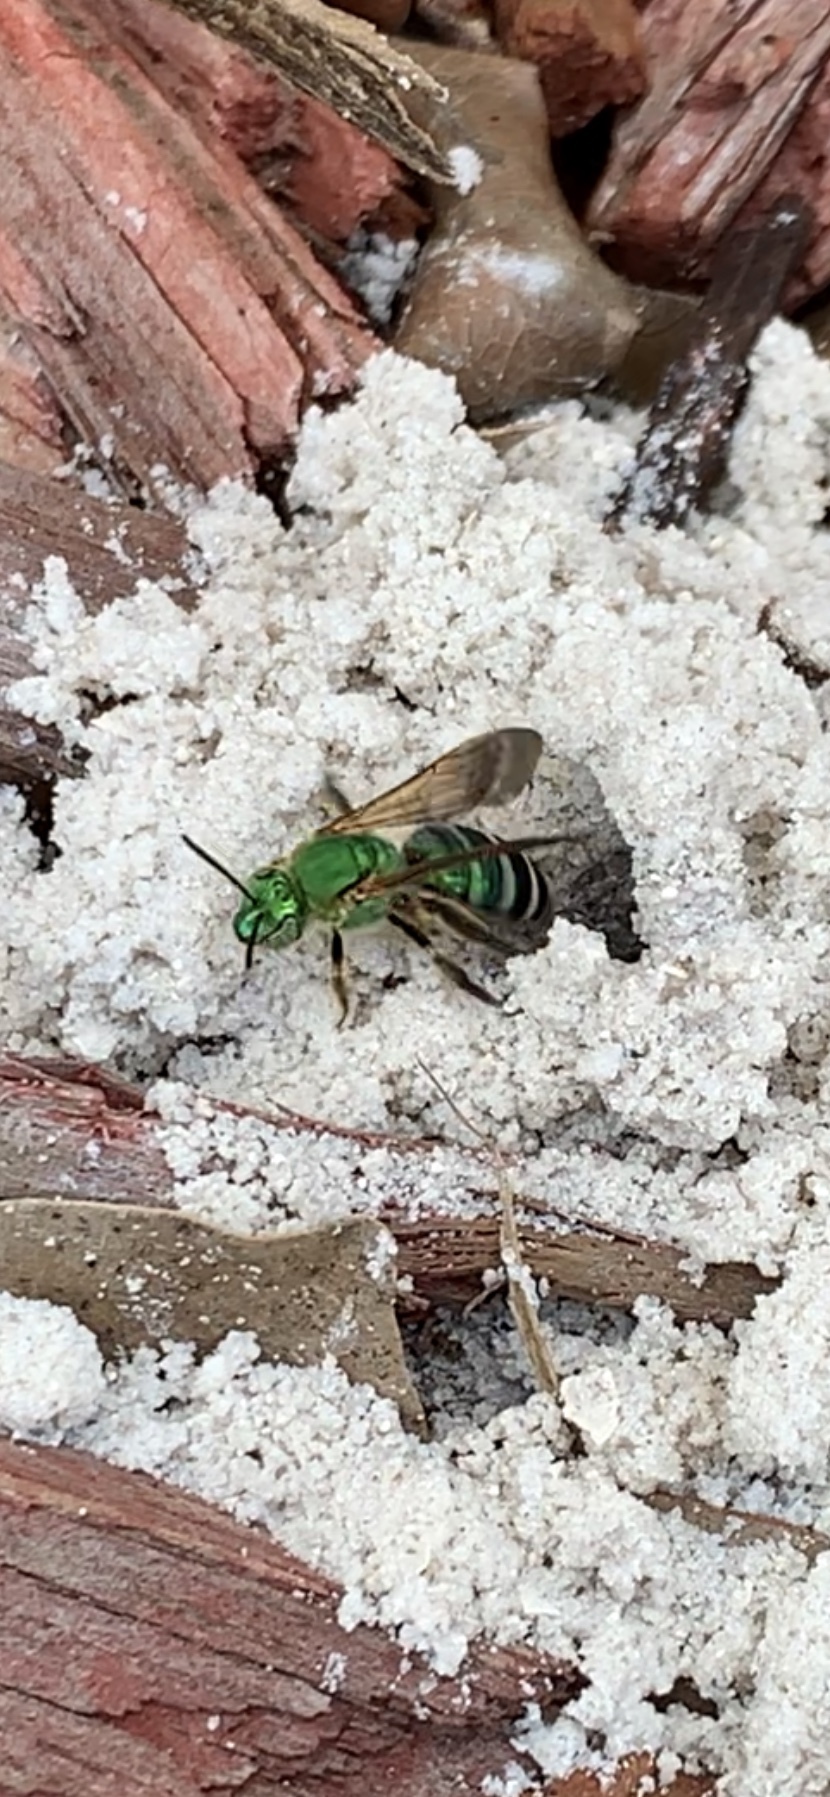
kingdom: Animalia
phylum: Arthropoda
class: Insecta
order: Hymenoptera
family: Halictidae
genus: Agapostemon
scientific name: Agapostemon splendens
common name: Brown-winged striped sweat bee
